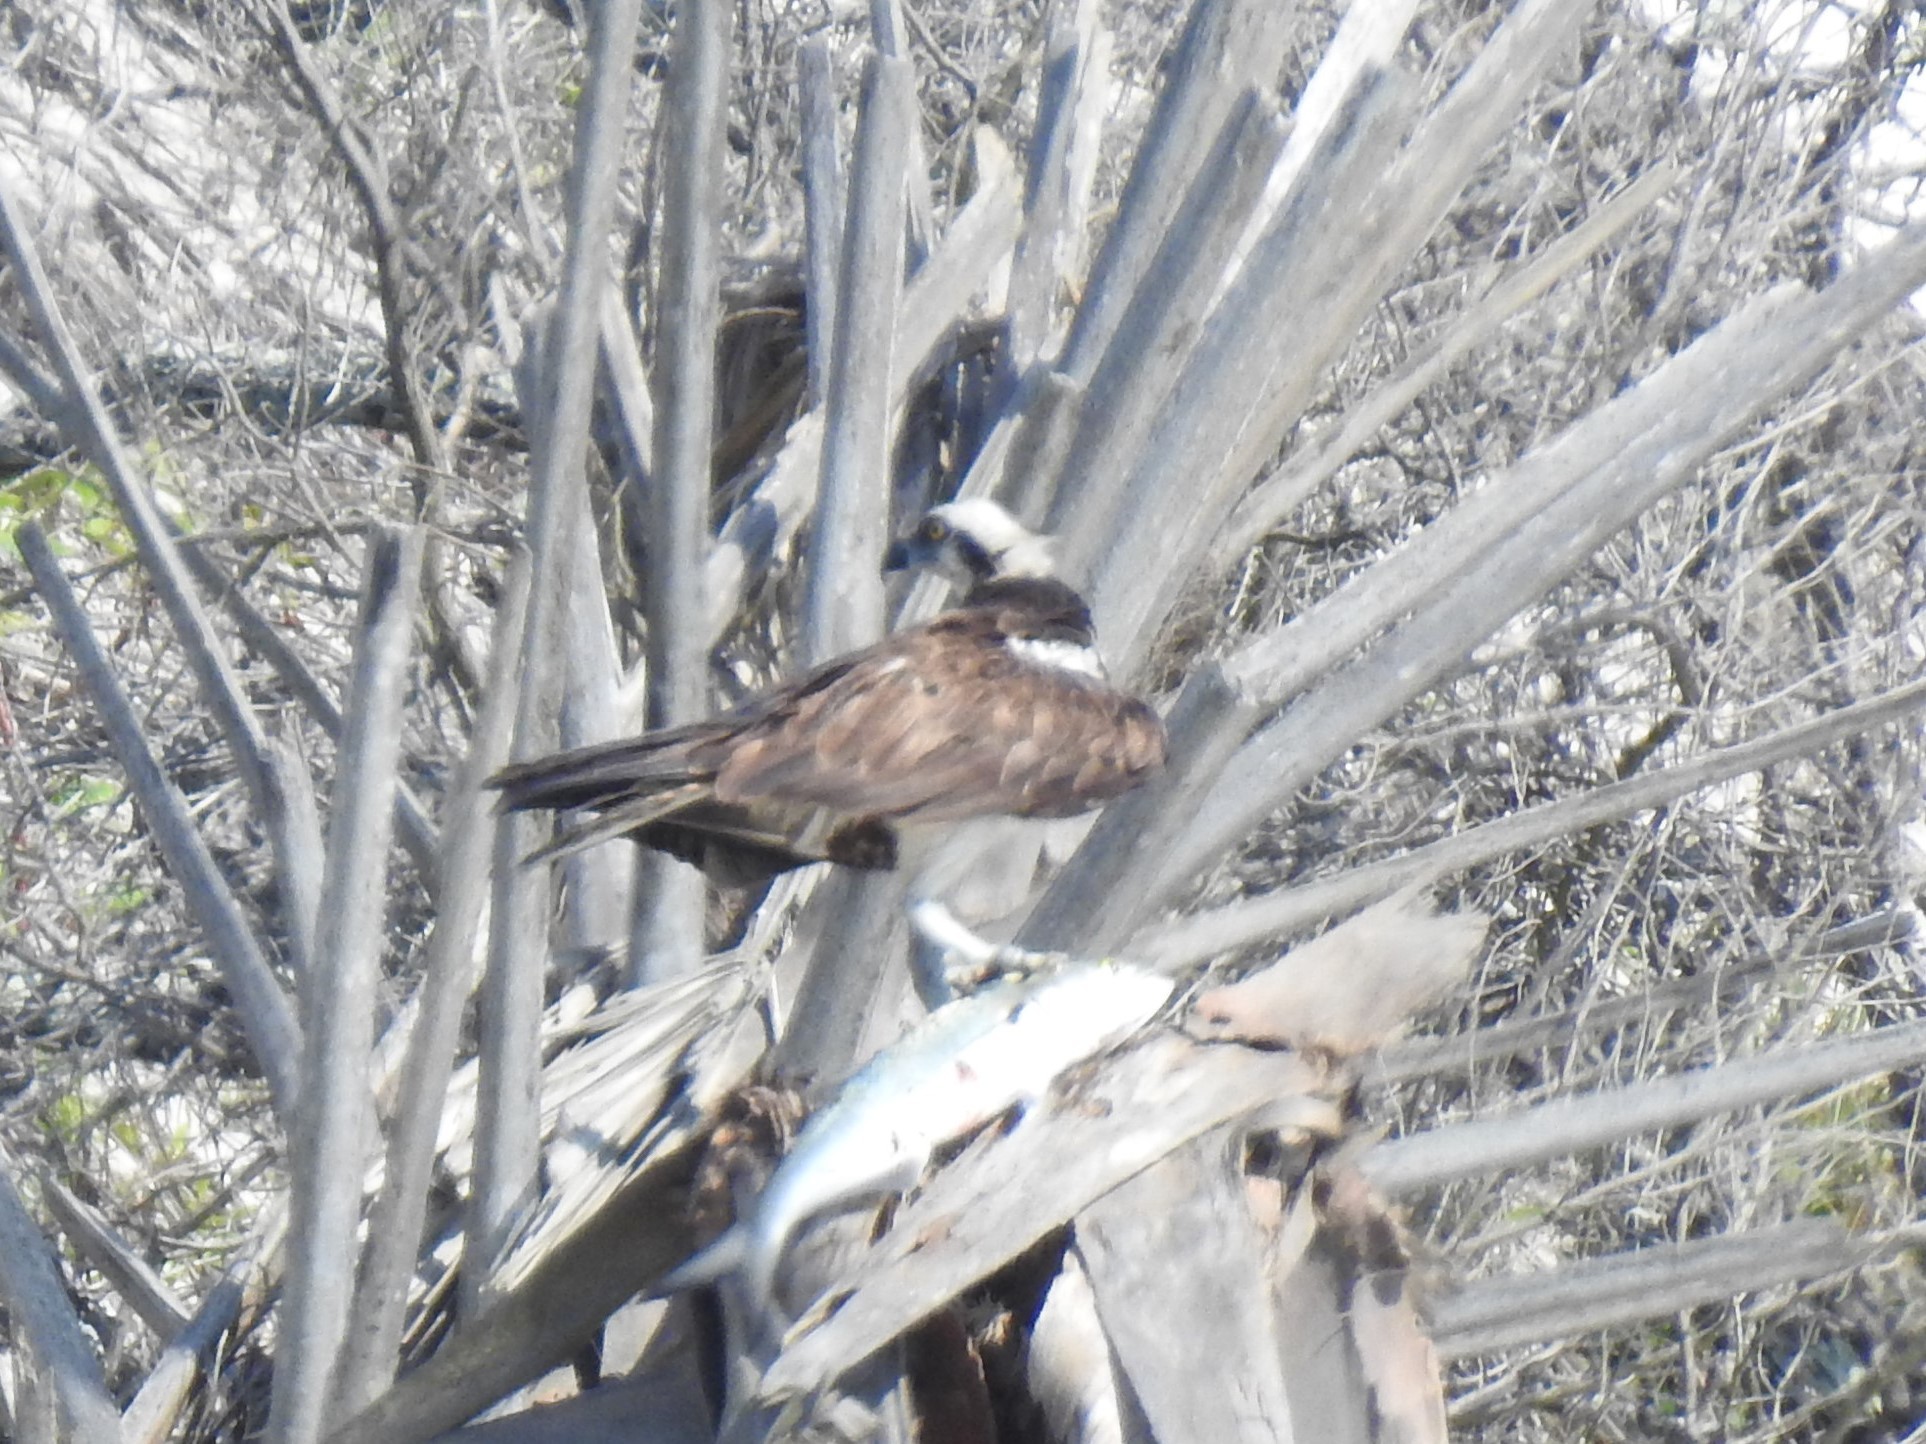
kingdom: Animalia
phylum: Chordata
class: Aves
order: Accipitriformes
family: Pandionidae
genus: Pandion
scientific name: Pandion haliaetus
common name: Osprey
